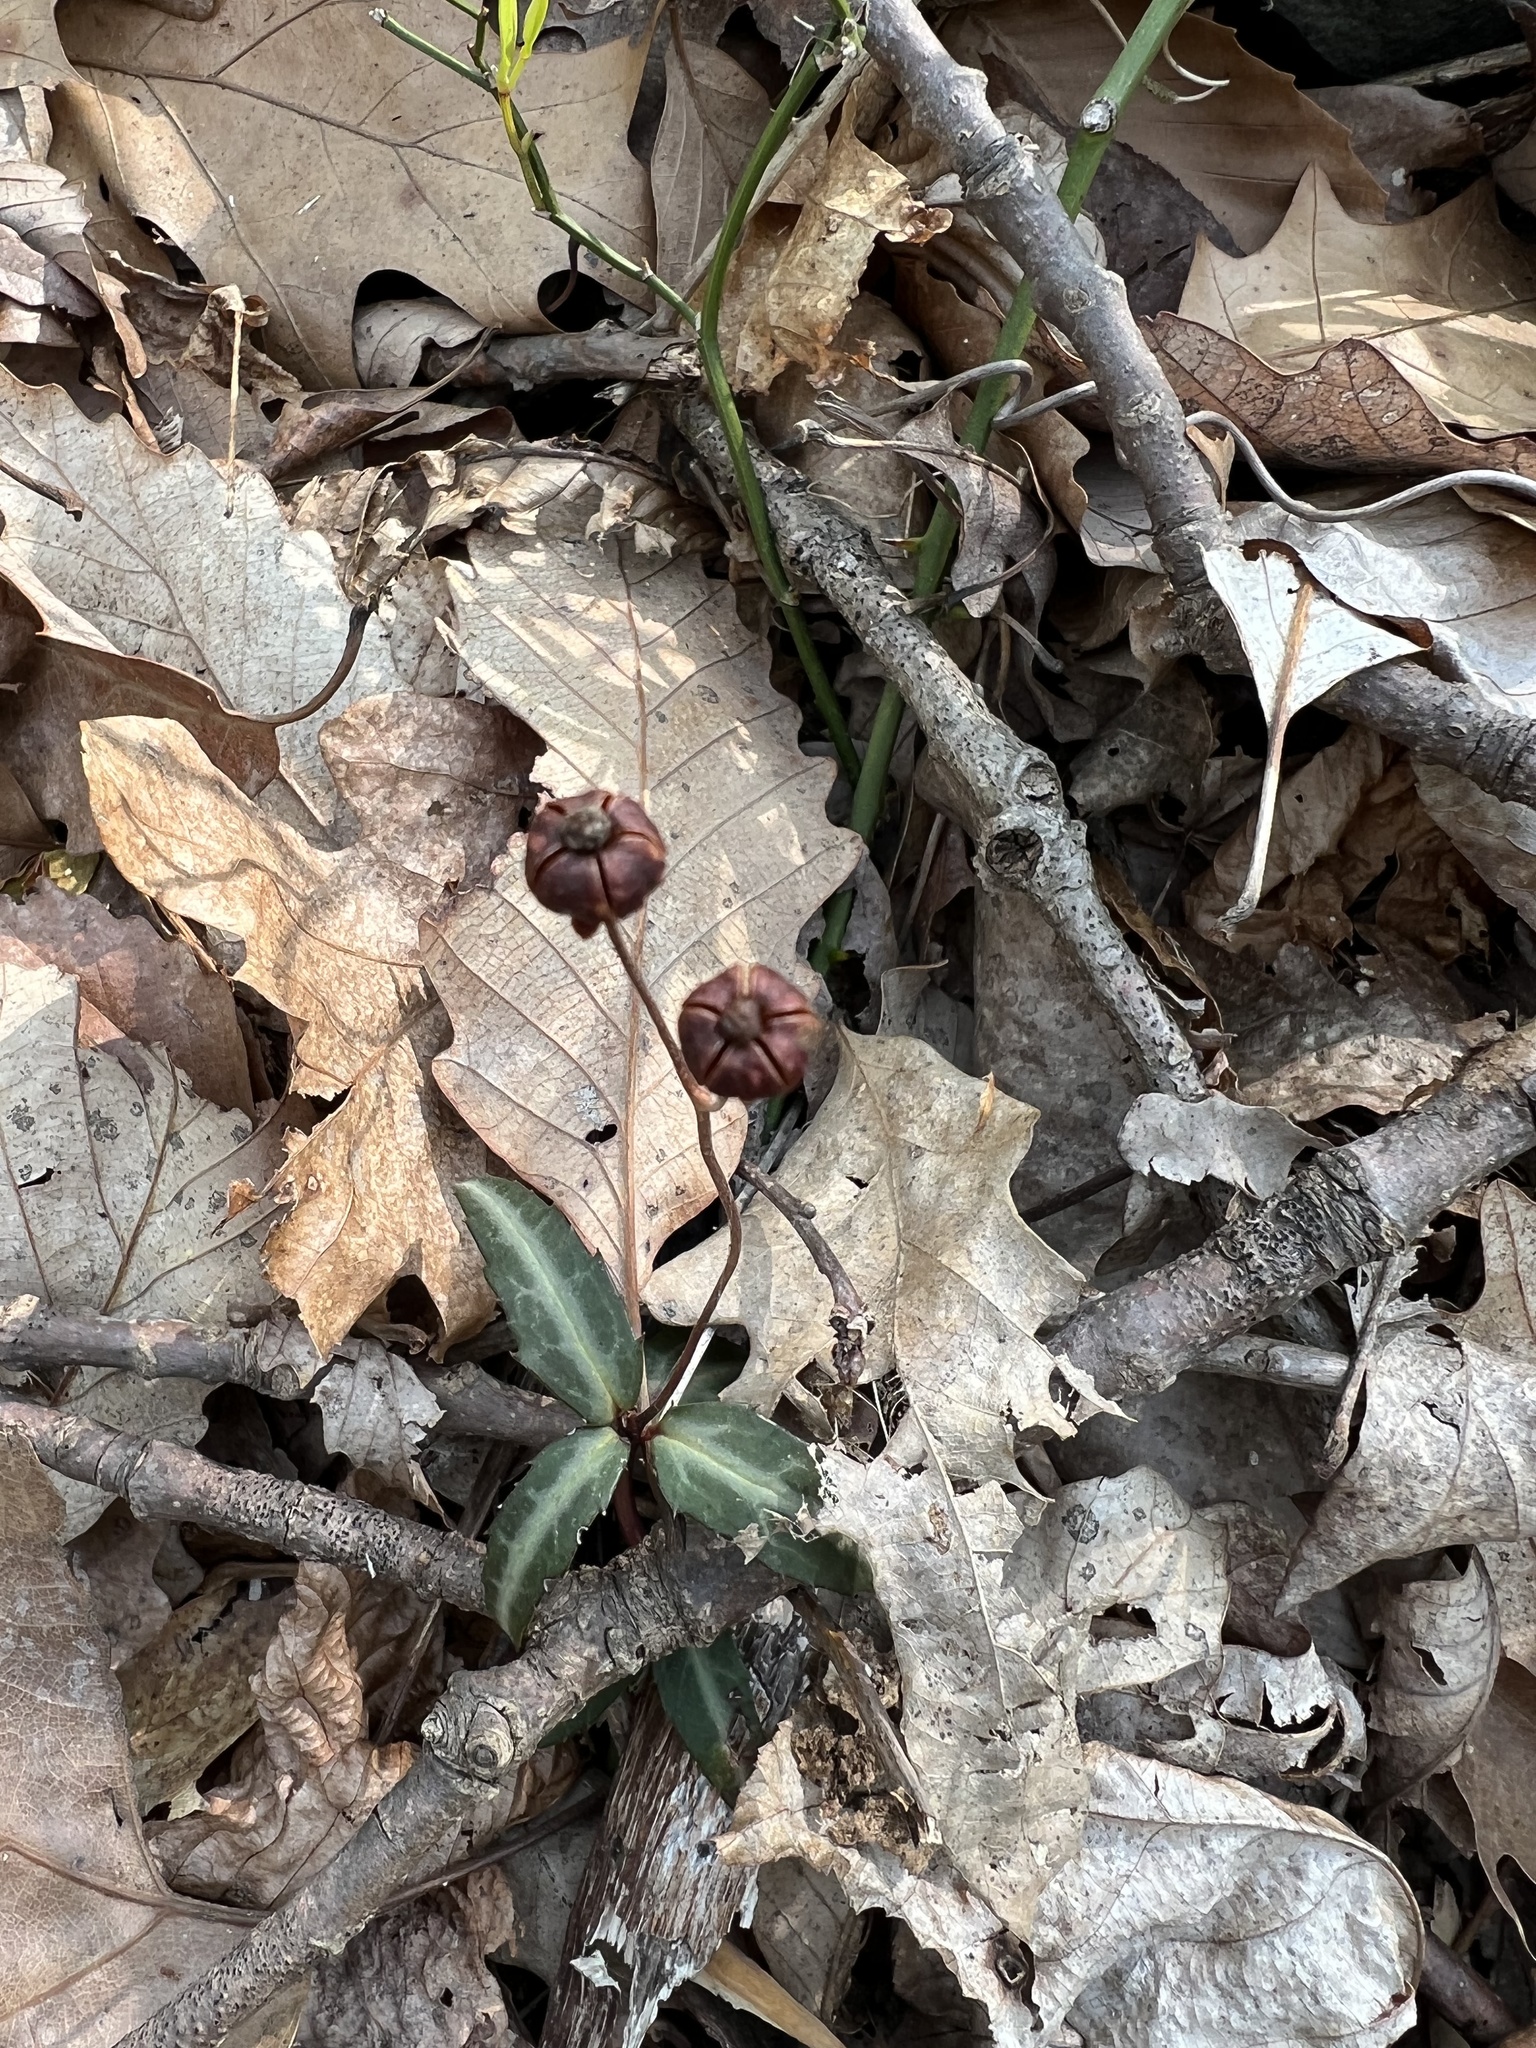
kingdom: Plantae
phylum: Tracheophyta
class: Magnoliopsida
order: Ericales
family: Ericaceae
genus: Chimaphila
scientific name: Chimaphila maculata
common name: Spotted pipsissewa
